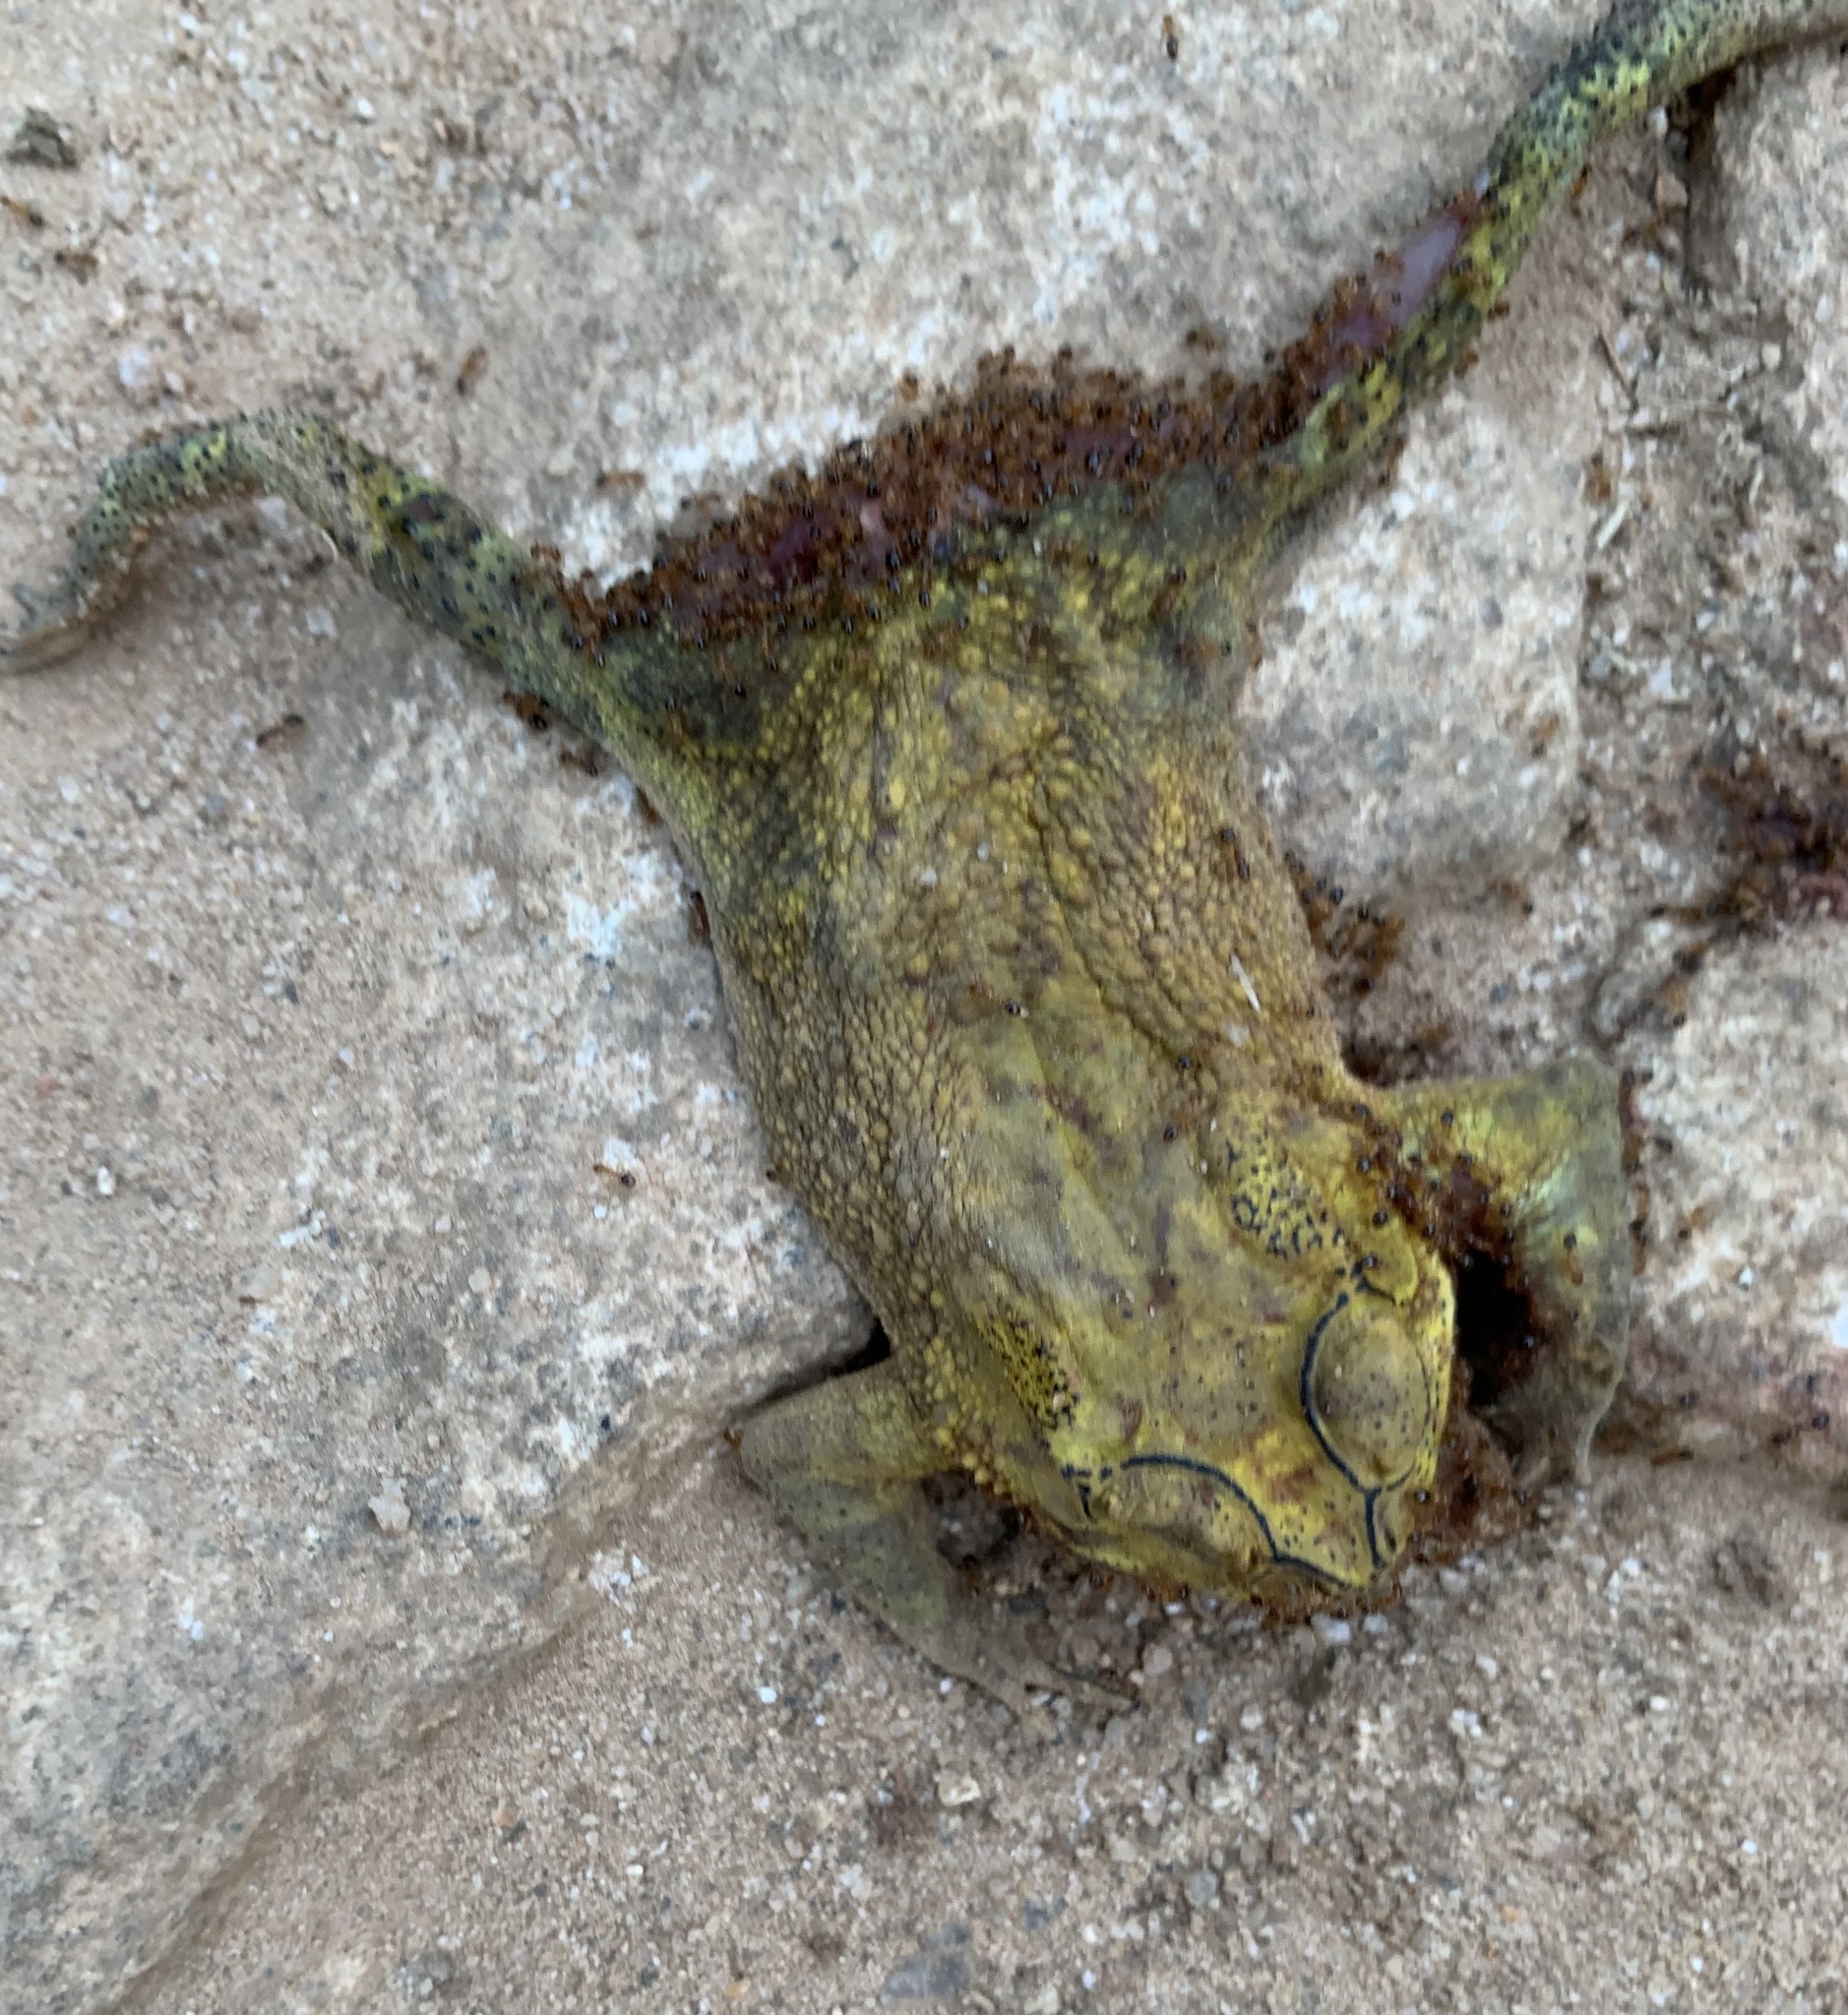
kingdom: Animalia
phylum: Chordata
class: Amphibia
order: Anura
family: Bufonidae
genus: Duttaphrynus
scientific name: Duttaphrynus melanostictus
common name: Common sunda toad
